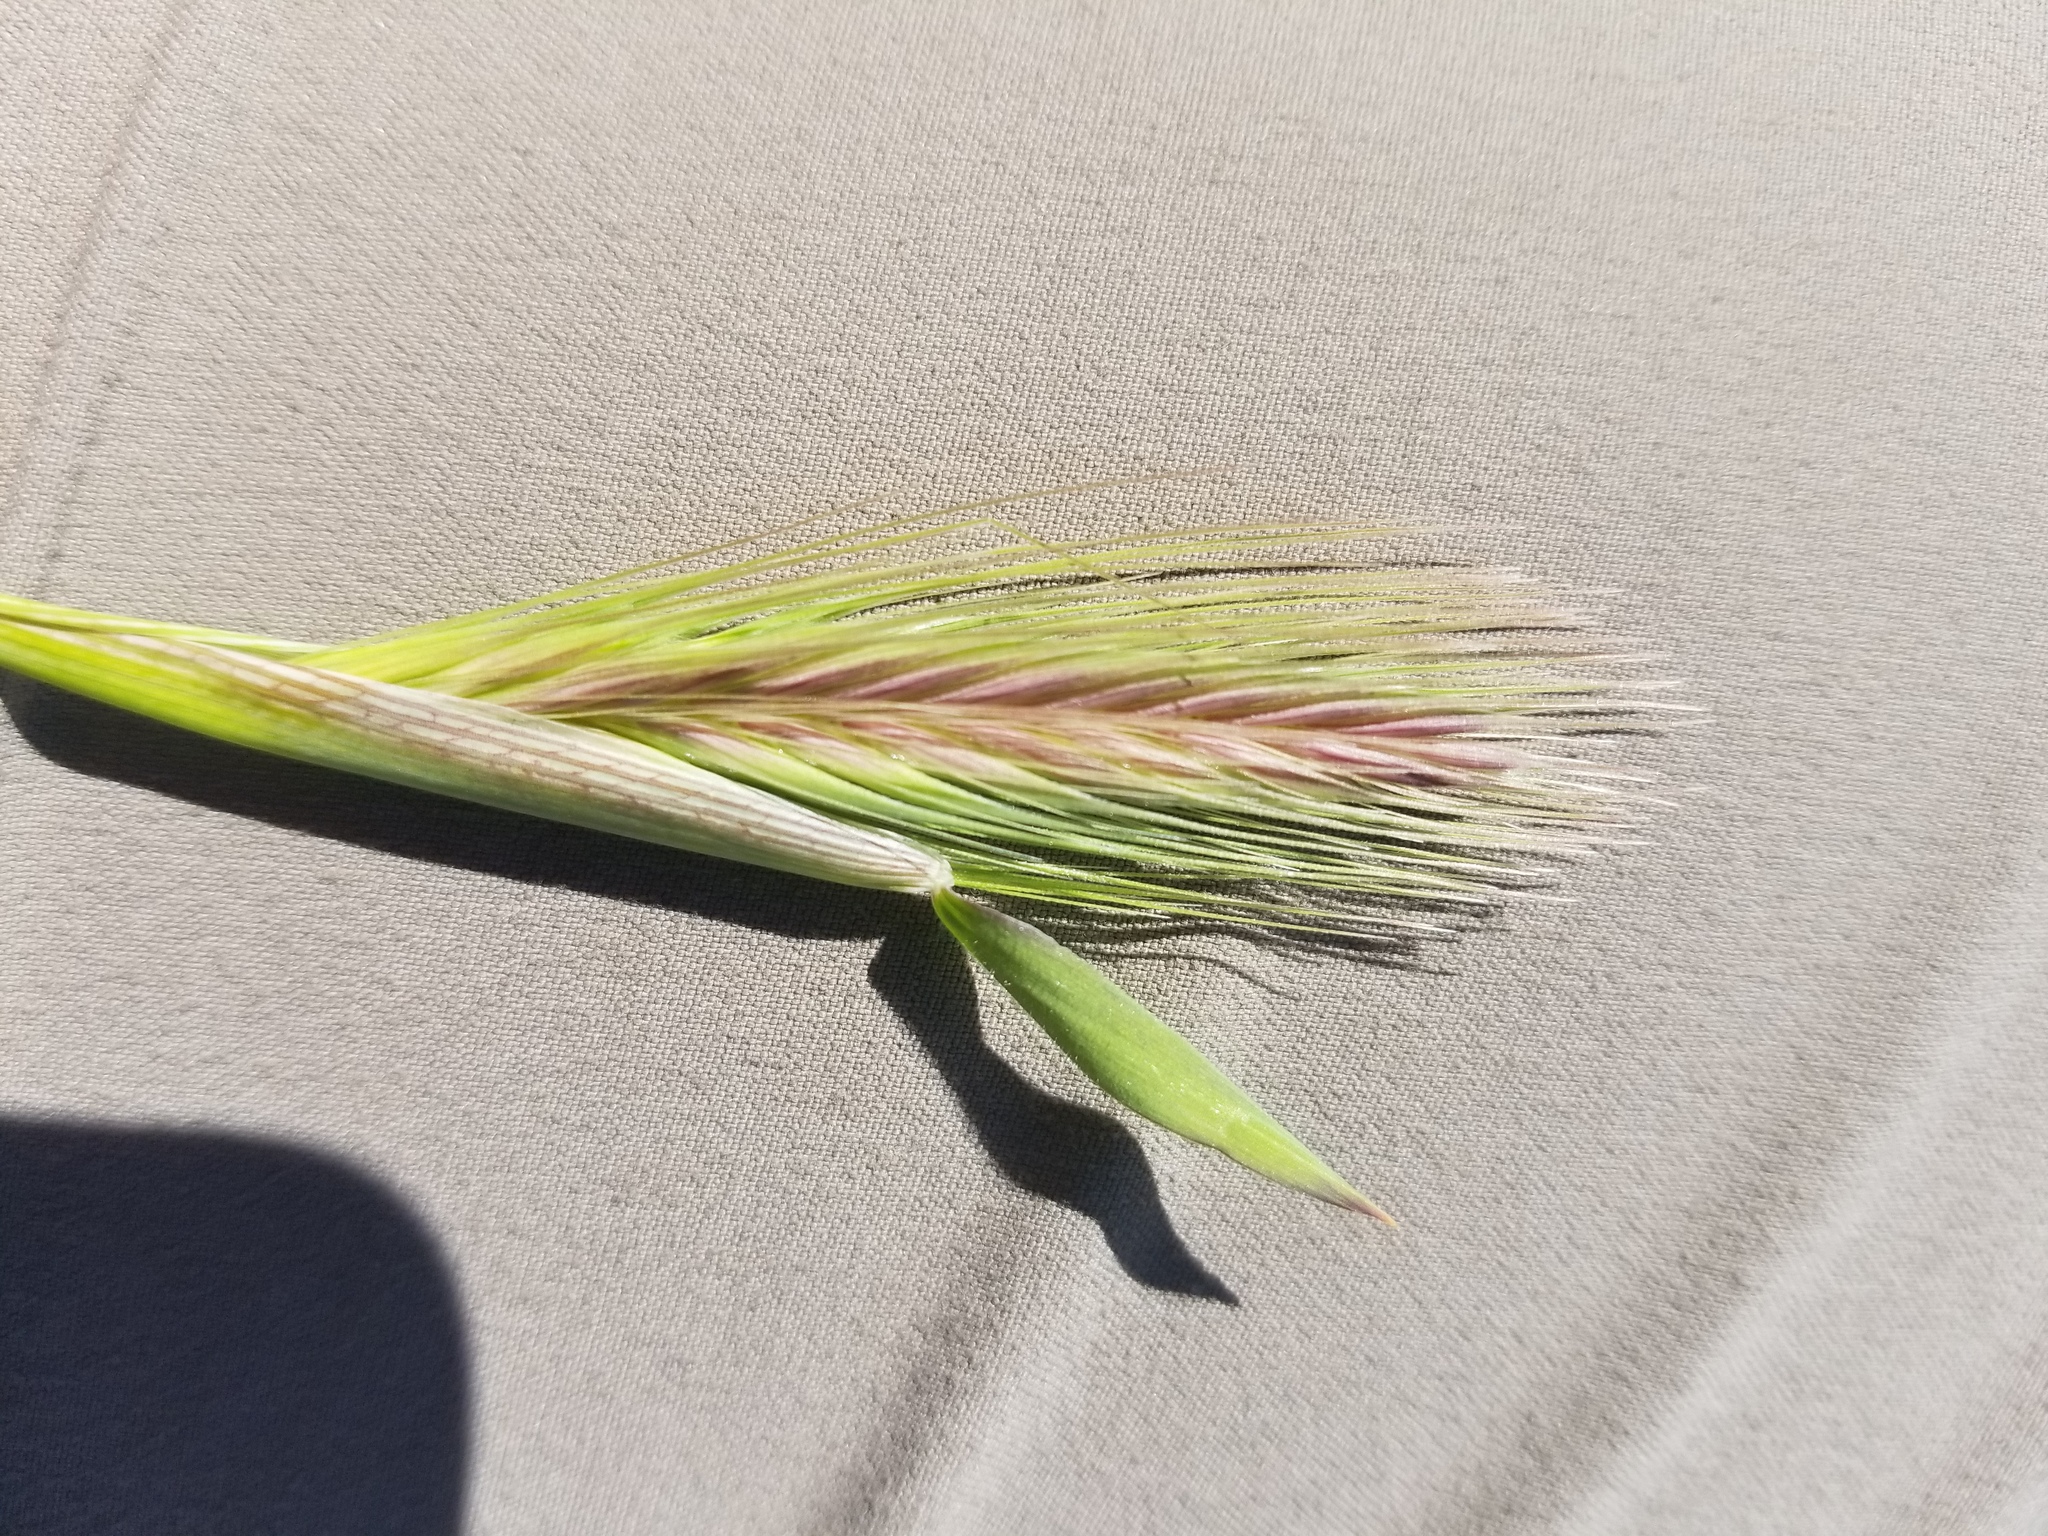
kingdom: Plantae
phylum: Tracheophyta
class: Liliopsida
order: Poales
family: Poaceae
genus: Hordeum
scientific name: Hordeum murinum
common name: Wall barley
